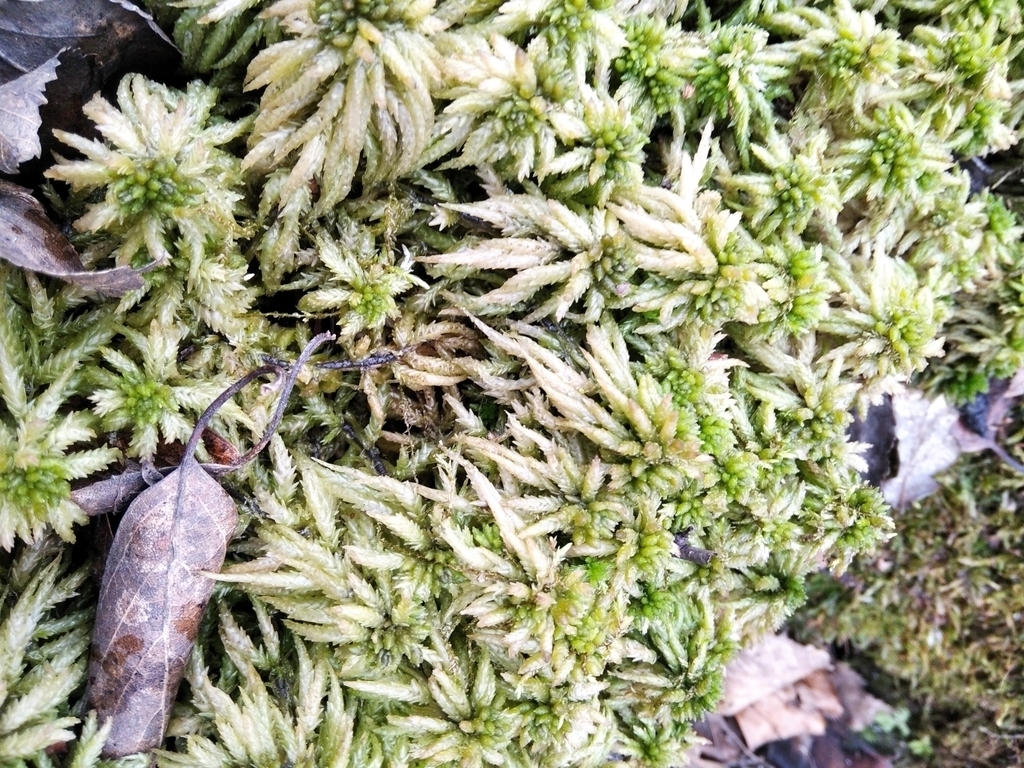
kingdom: Plantae
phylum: Bryophyta
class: Sphagnopsida
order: Sphagnales
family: Sphagnaceae
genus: Sphagnum
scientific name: Sphagnum centrale
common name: Central peat moss
